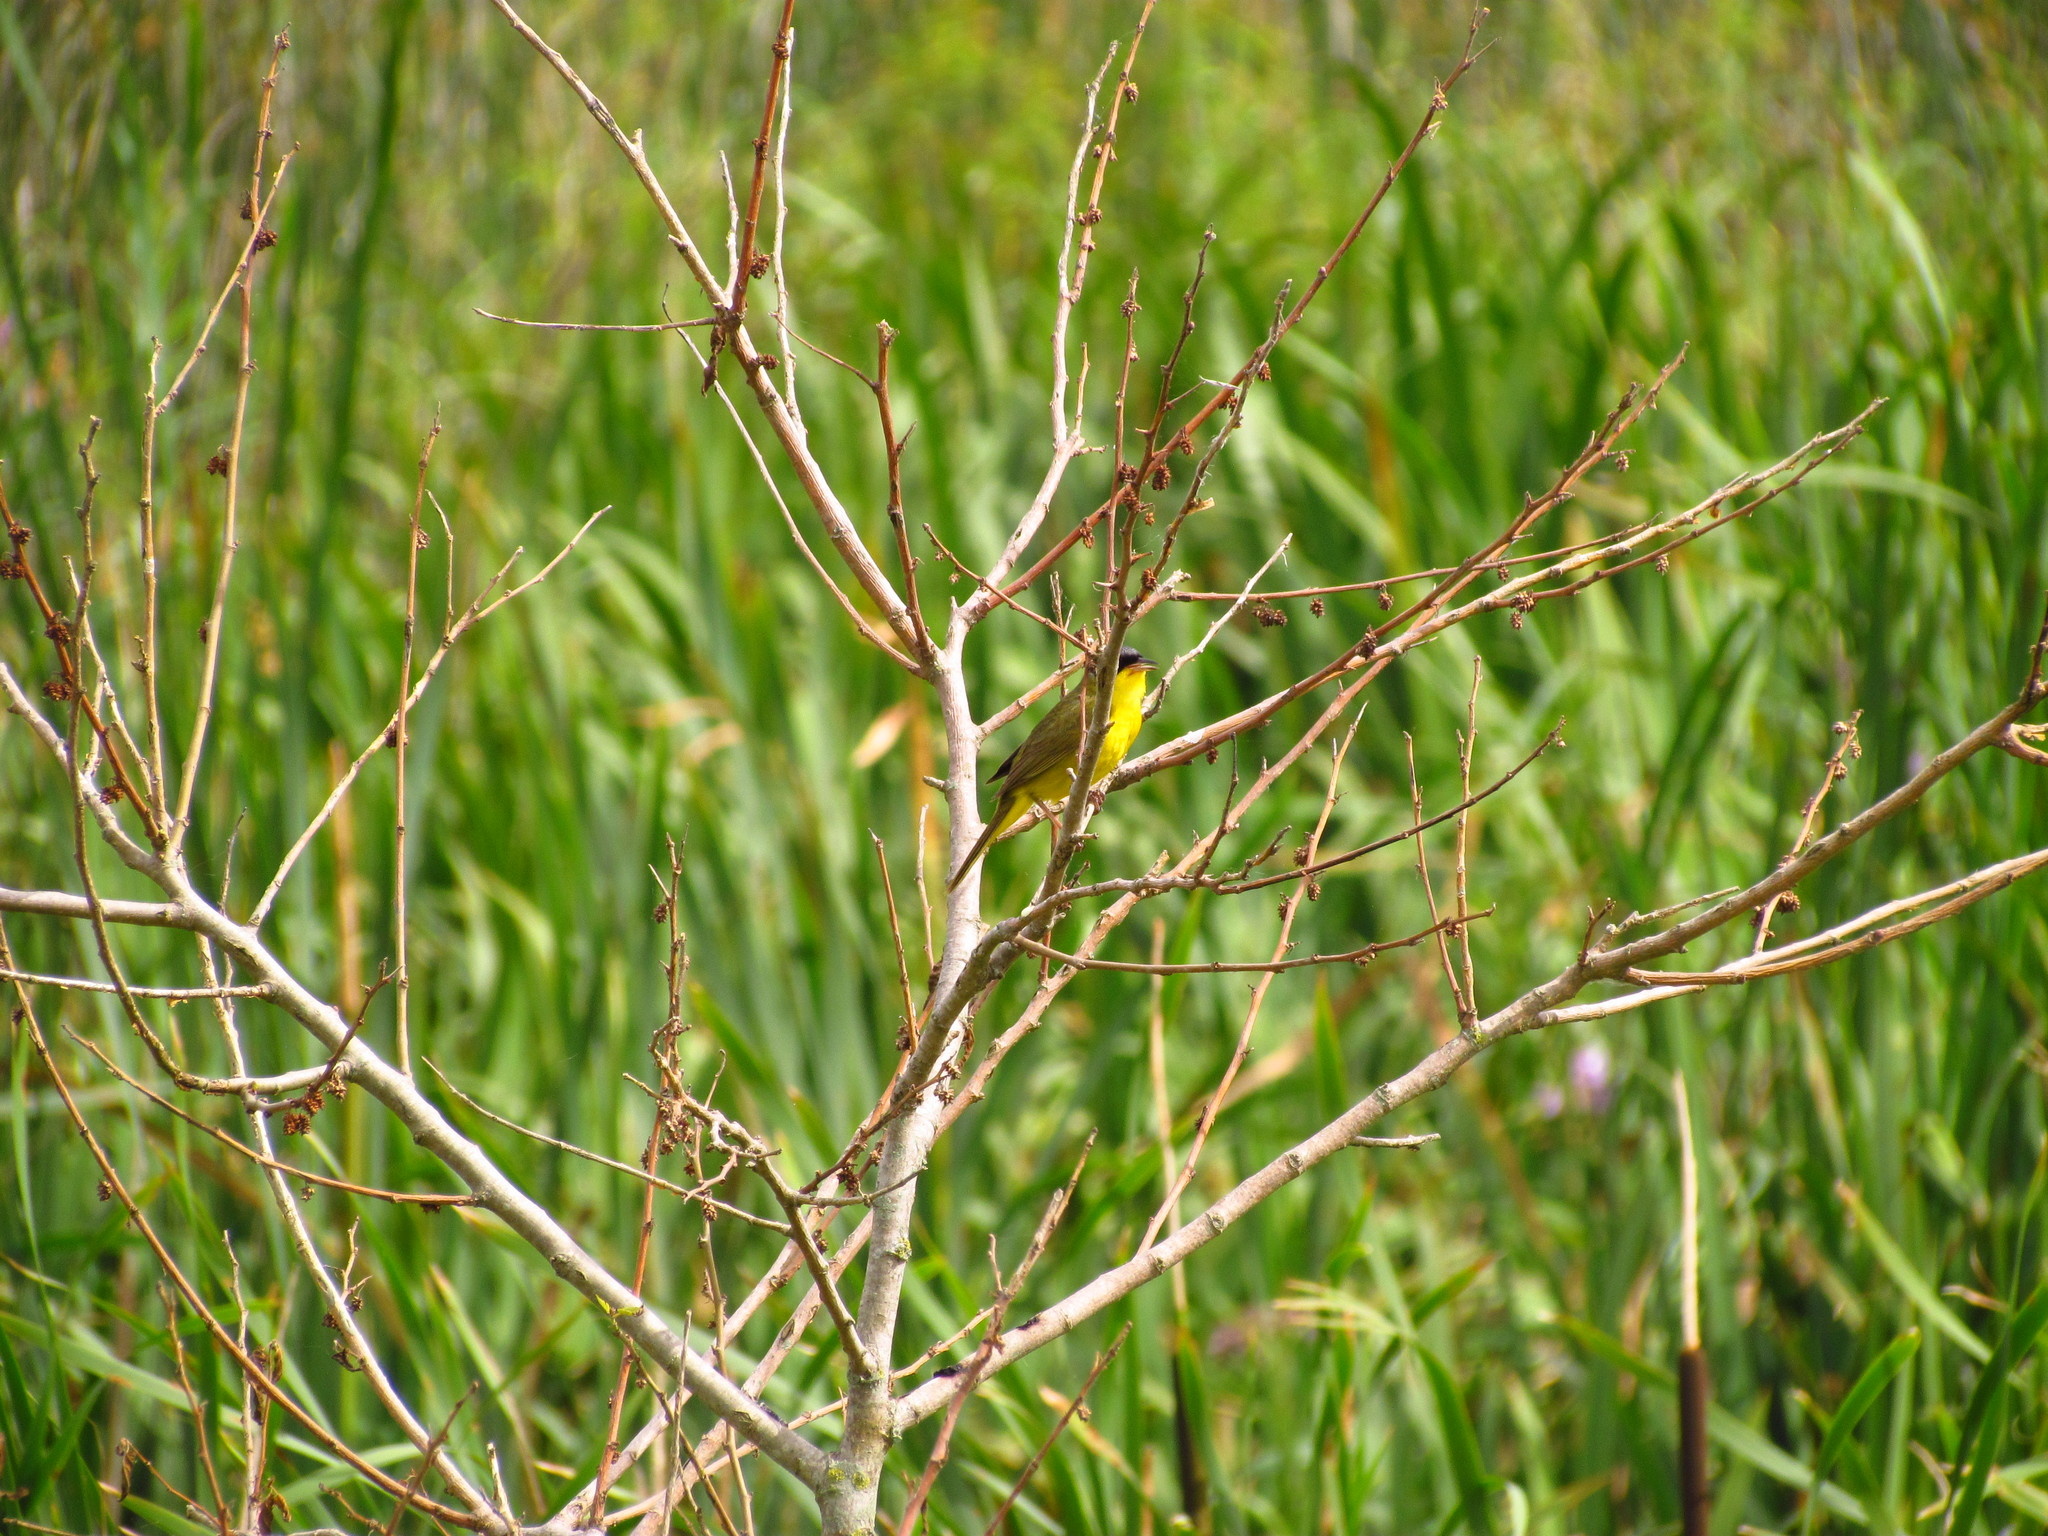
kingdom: Animalia
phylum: Chordata
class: Aves
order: Passeriformes
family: Parulidae
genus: Geothlypis
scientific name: Geothlypis velata
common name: Southern yellowthroat
